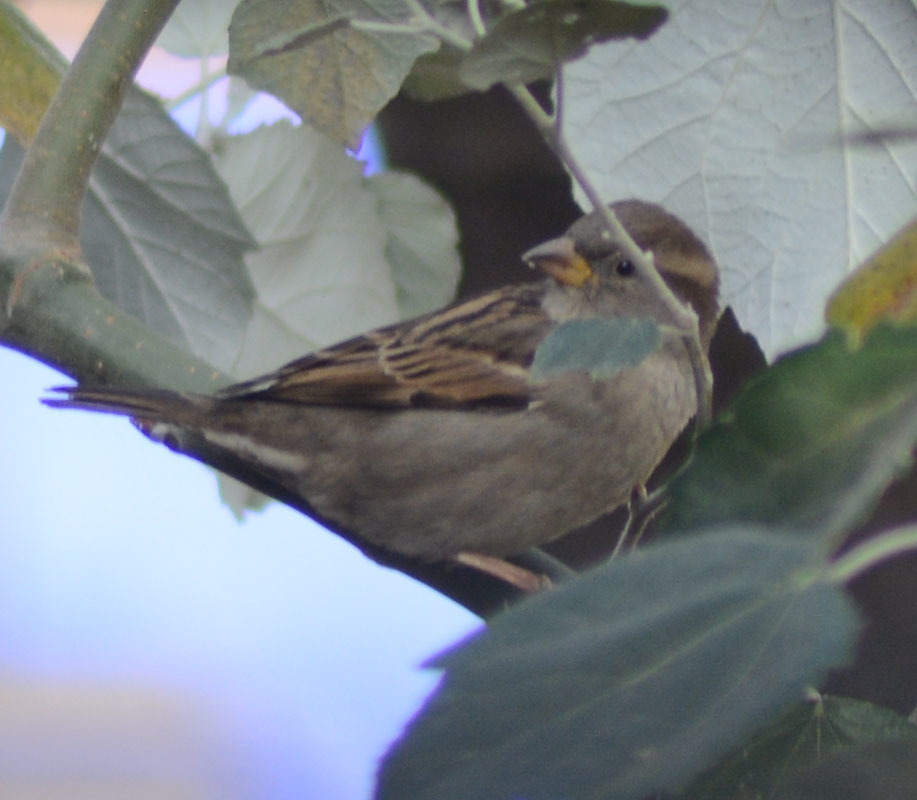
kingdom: Animalia
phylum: Chordata
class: Aves
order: Passeriformes
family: Passeridae
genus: Passer
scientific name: Passer domesticus
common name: House sparrow
